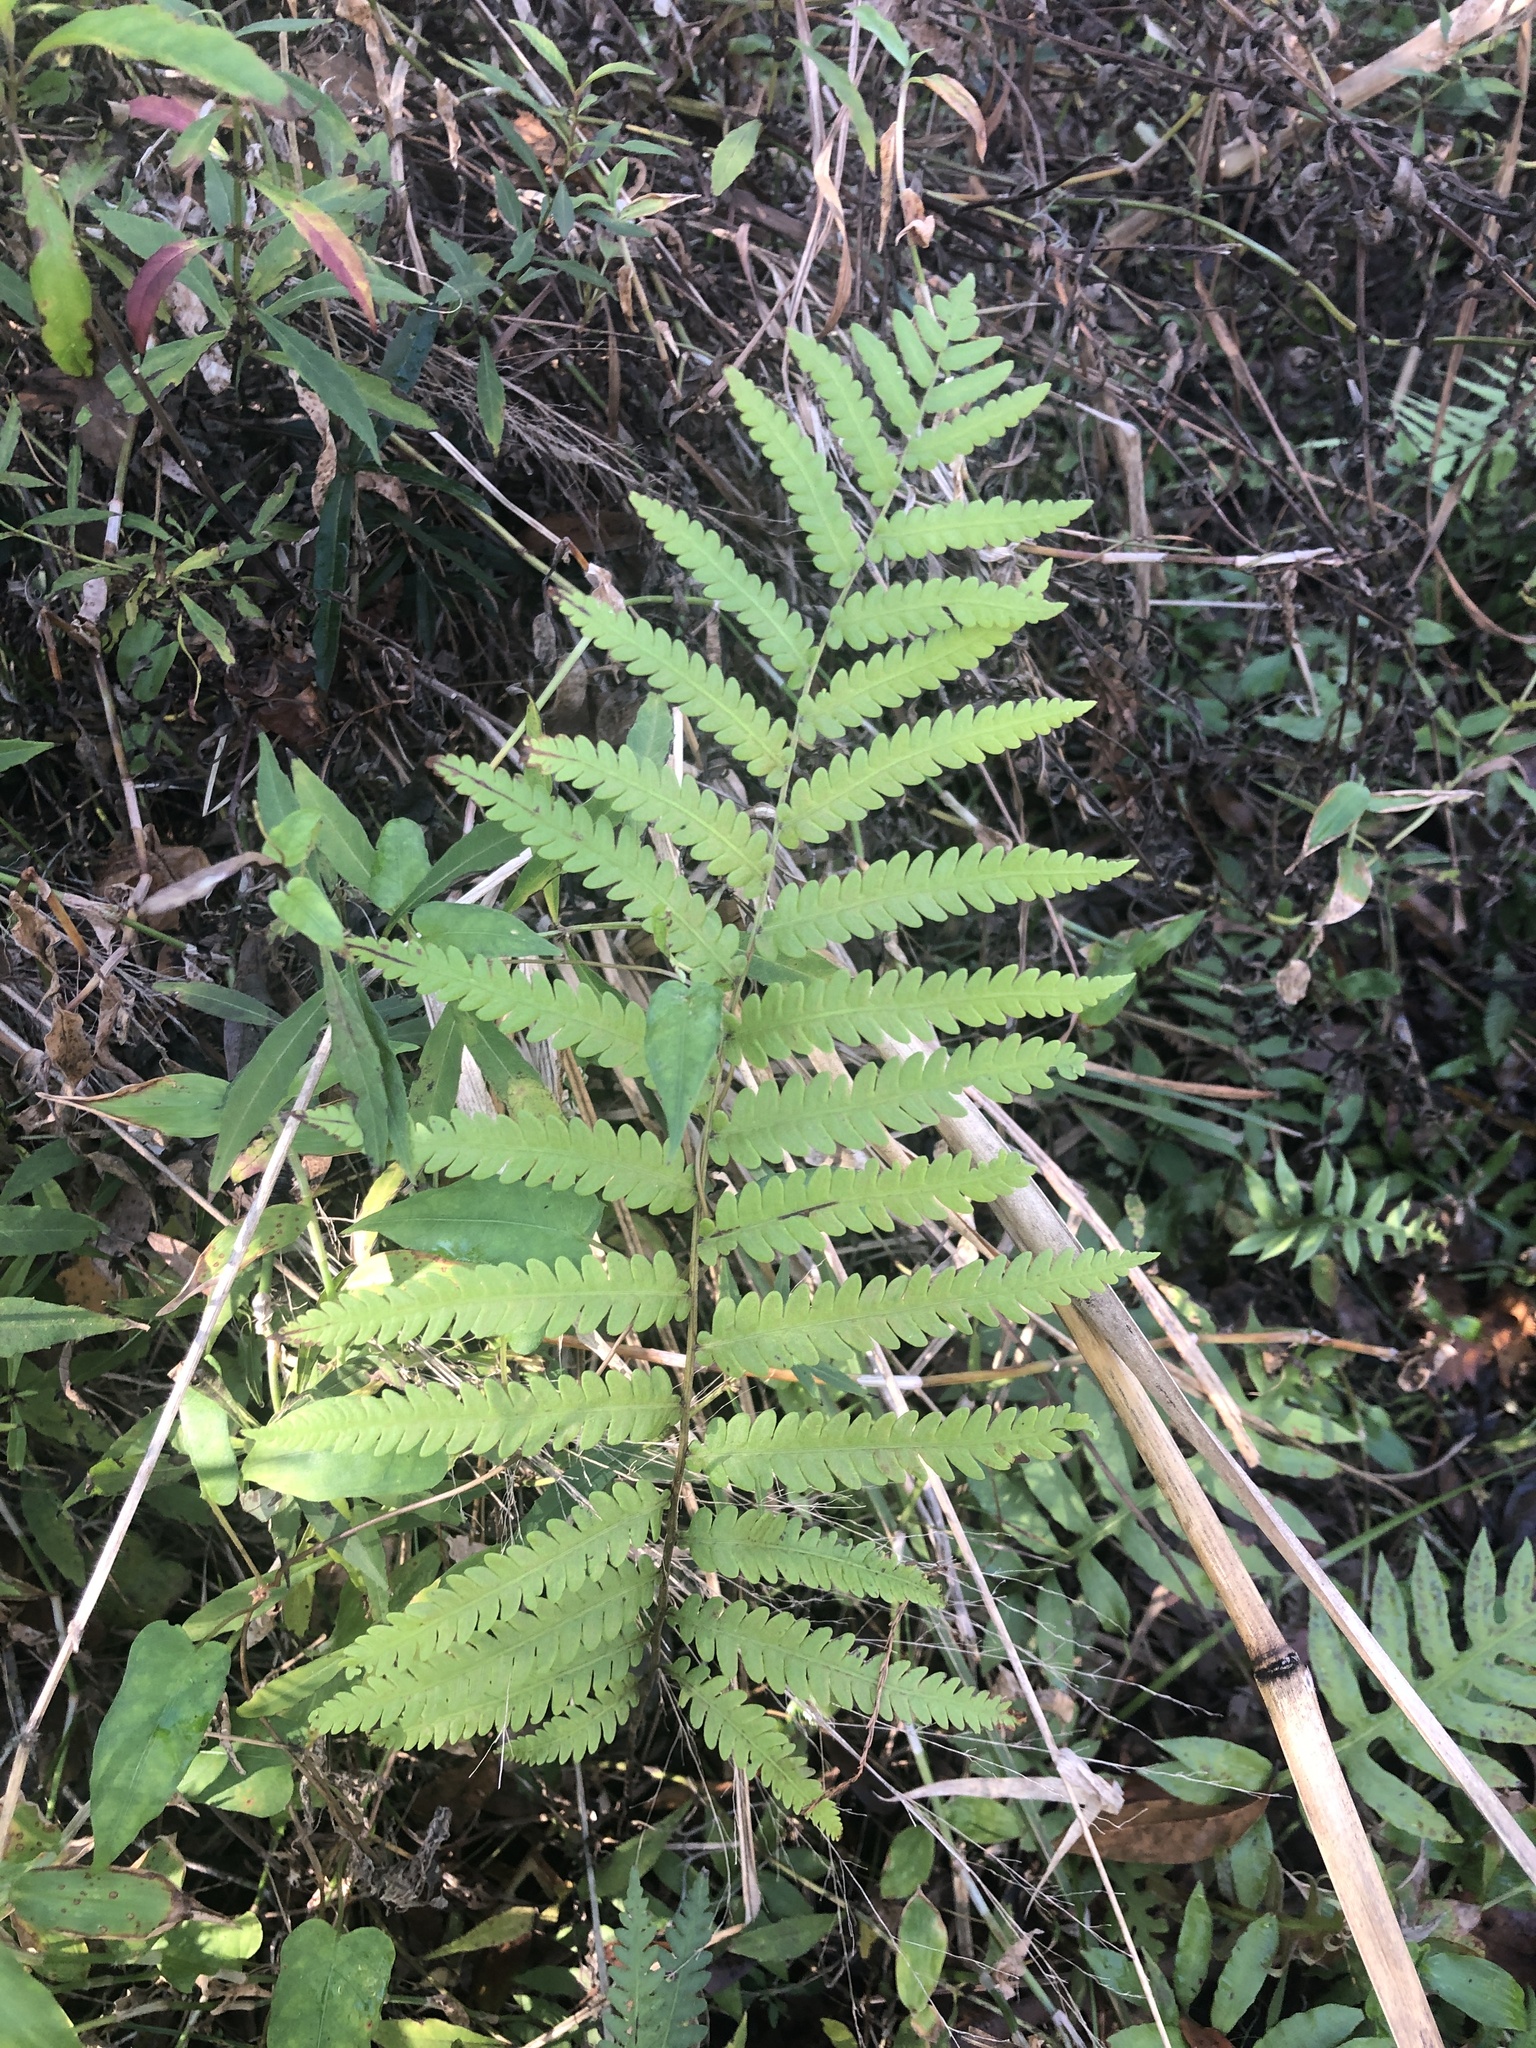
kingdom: Plantae
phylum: Tracheophyta
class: Polypodiopsida
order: Polypodiales
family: Blechnaceae
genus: Anchistea
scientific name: Anchistea virginica
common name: Virginia chain fern
